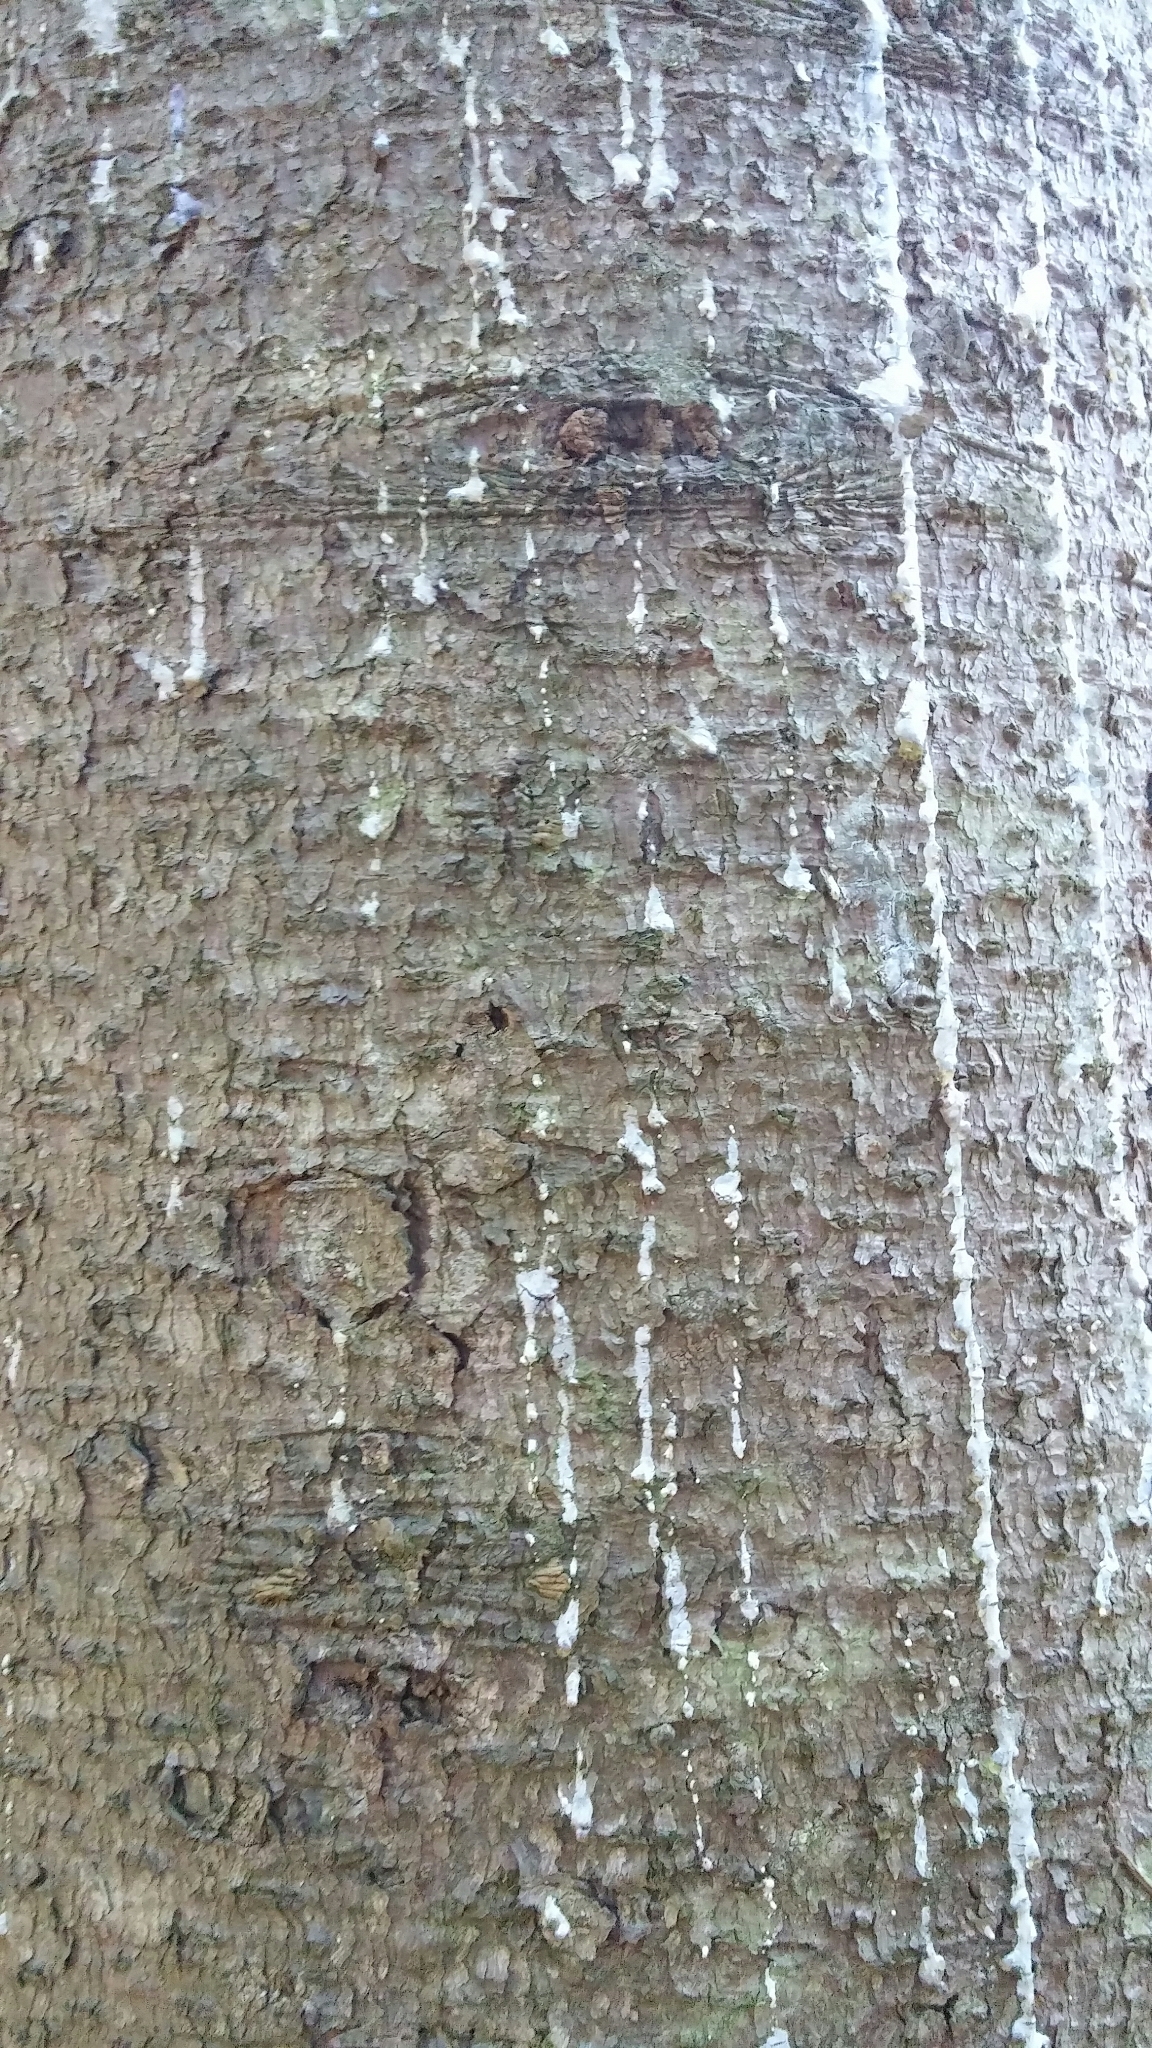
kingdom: Plantae
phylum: Tracheophyta
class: Pinopsida
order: Pinales
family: Pinaceae
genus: Picea
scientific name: Picea sitchensis
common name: Sitka spruce
